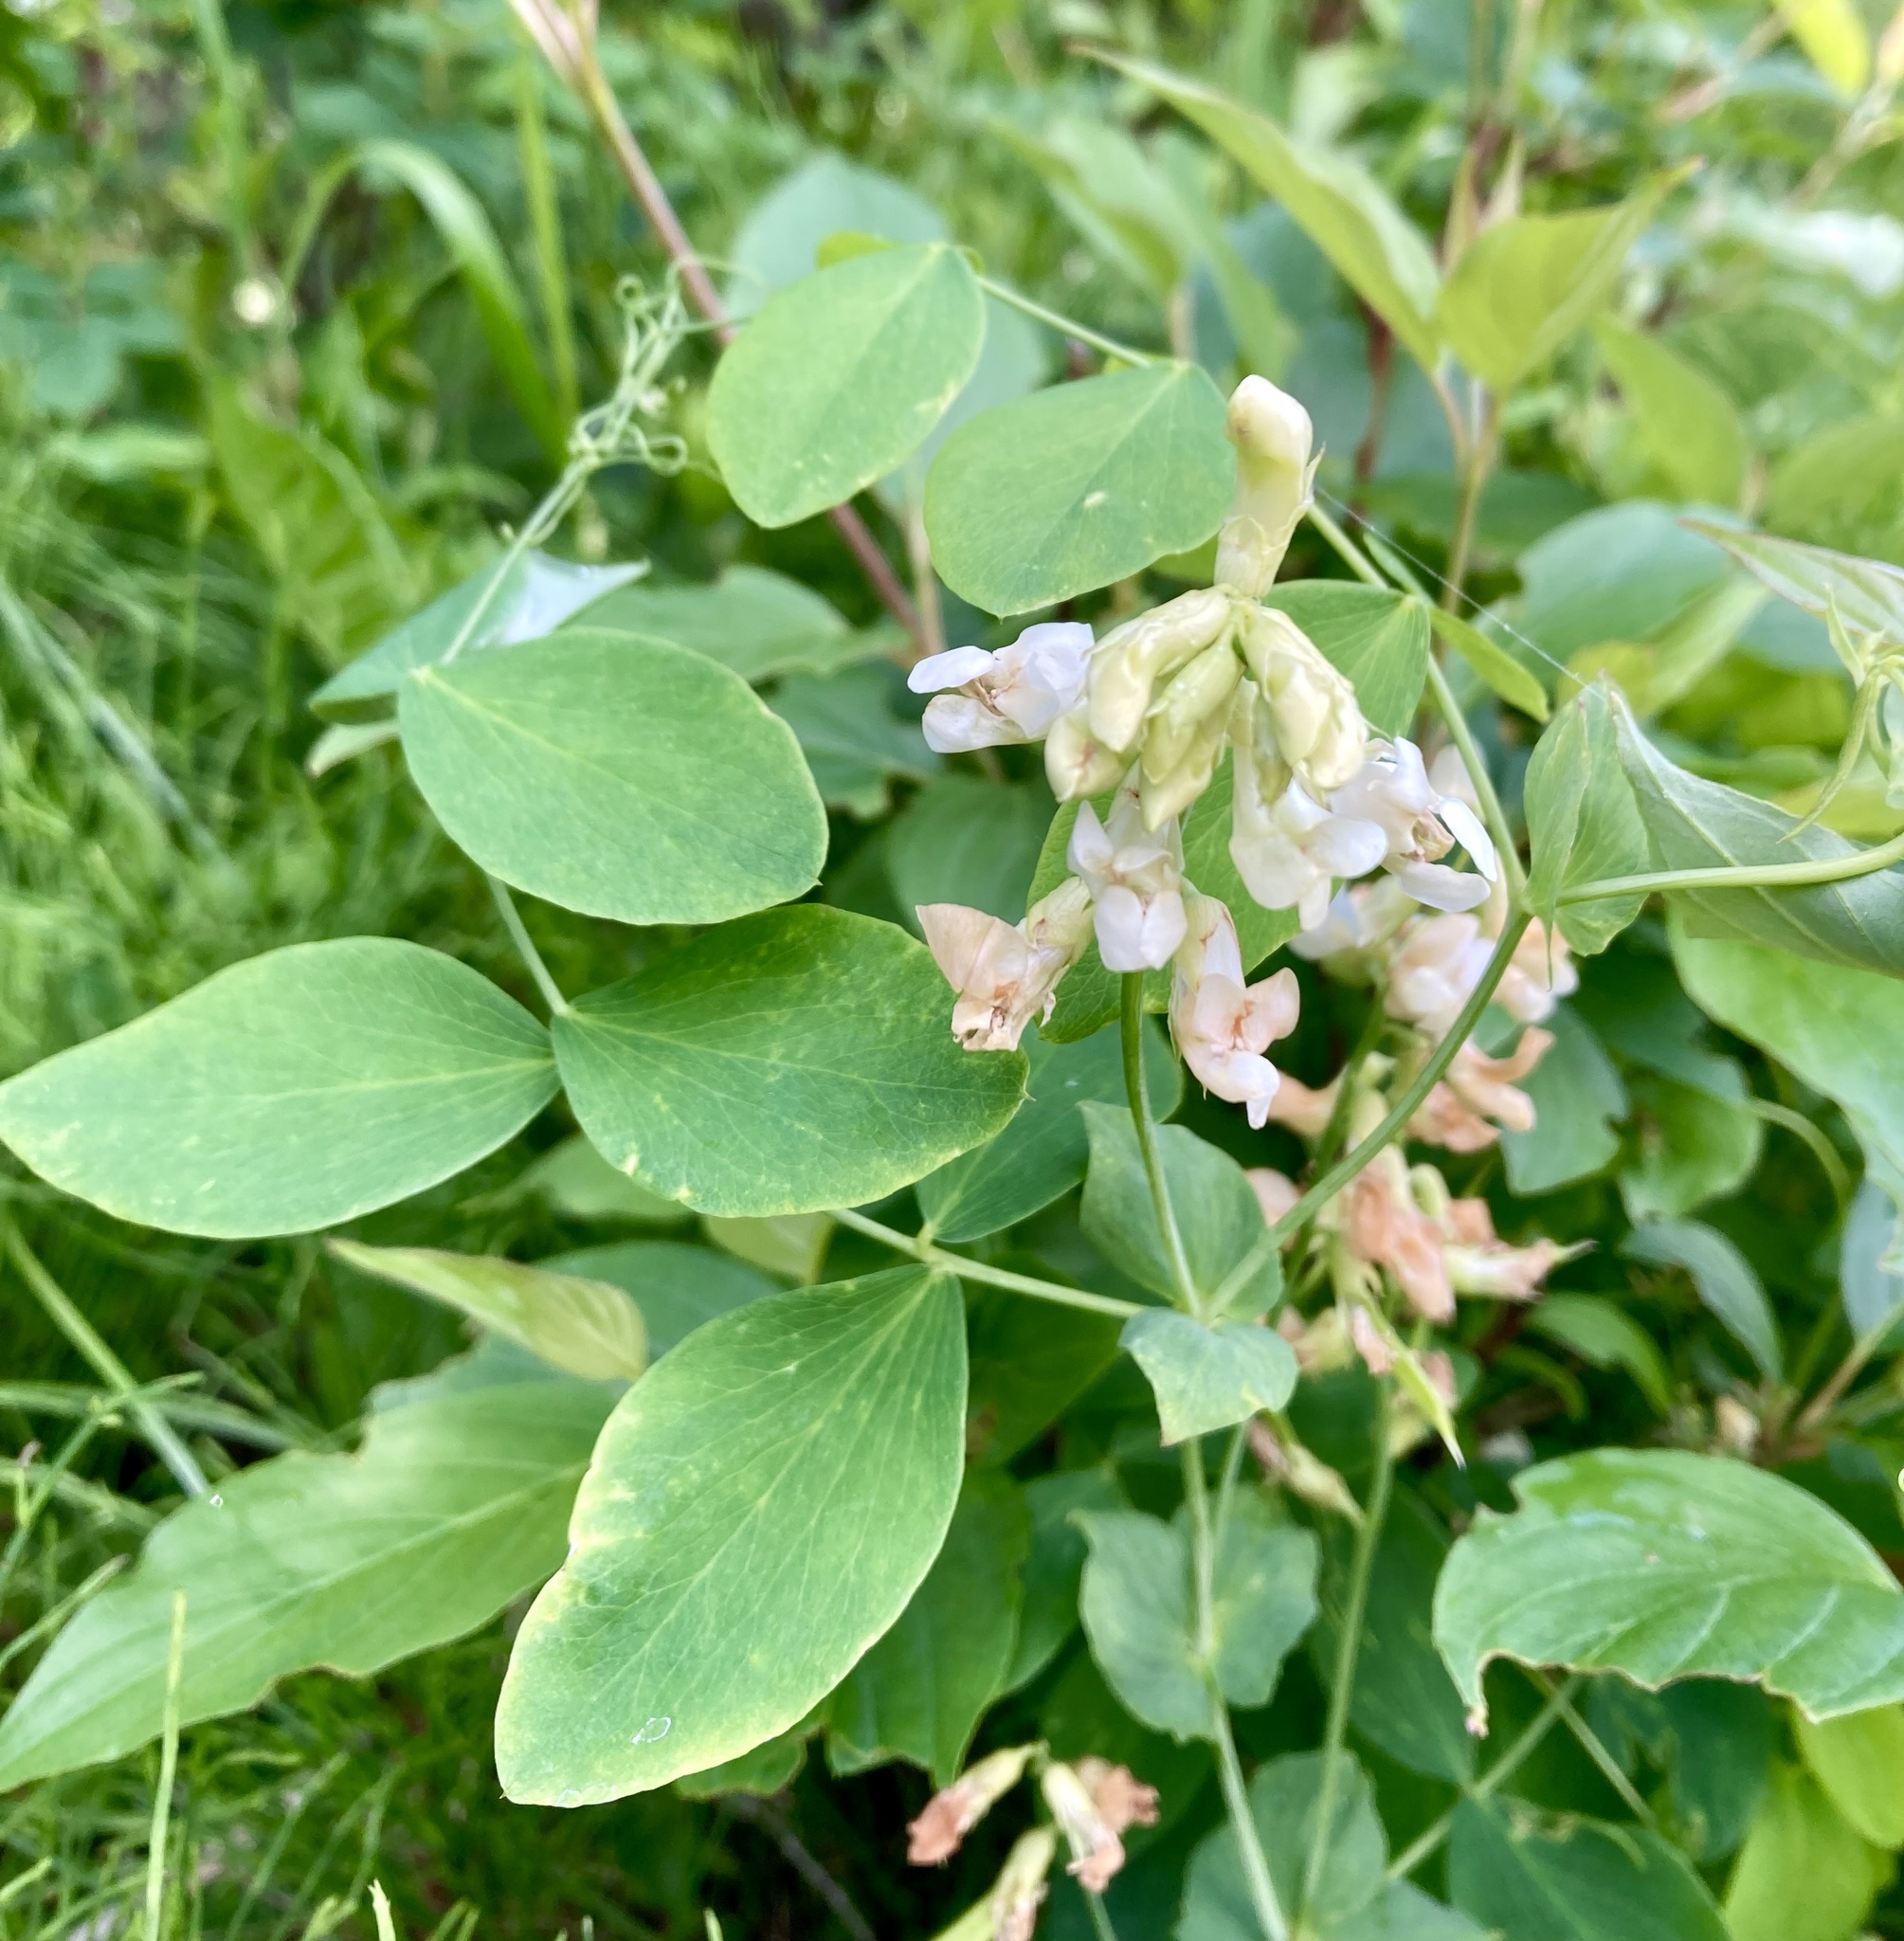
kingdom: Plantae
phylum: Tracheophyta
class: Magnoliopsida
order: Fabales
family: Fabaceae
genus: Lathyrus
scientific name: Lathyrus ochroleucus
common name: Pale vetchling
